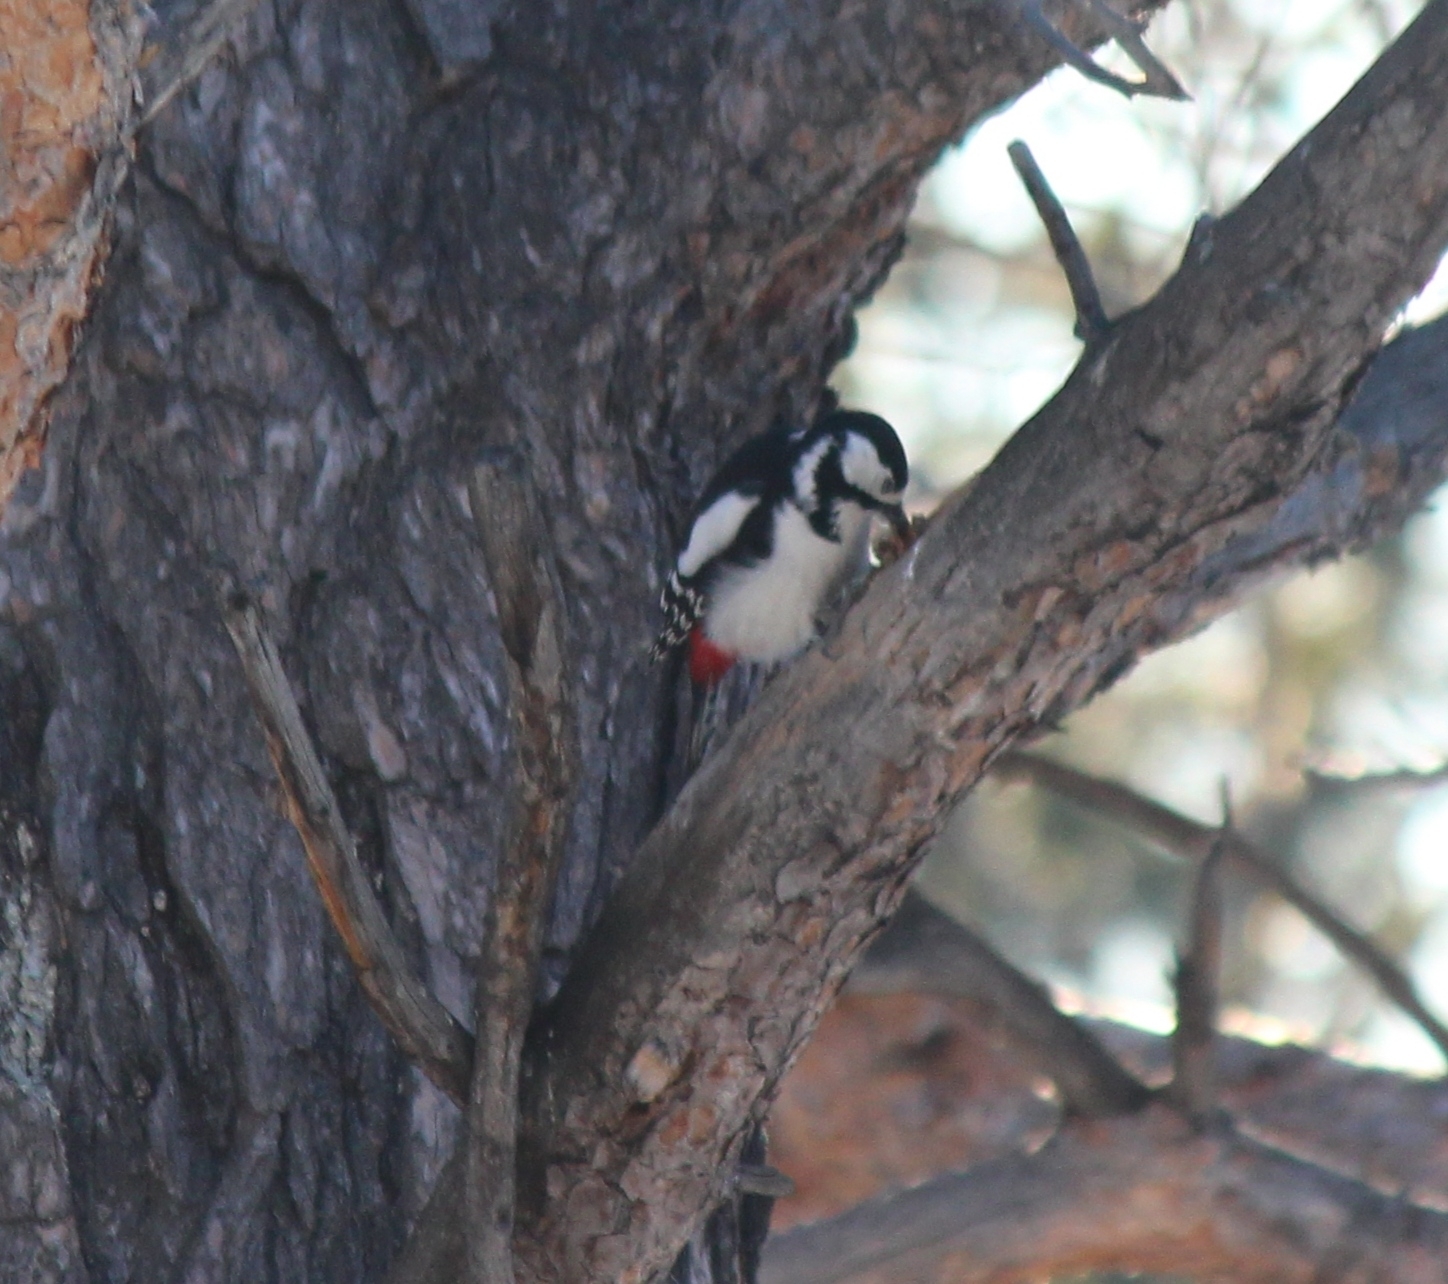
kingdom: Animalia
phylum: Chordata
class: Aves
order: Piciformes
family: Picidae
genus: Dendrocopos
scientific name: Dendrocopos major
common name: Great spotted woodpecker
